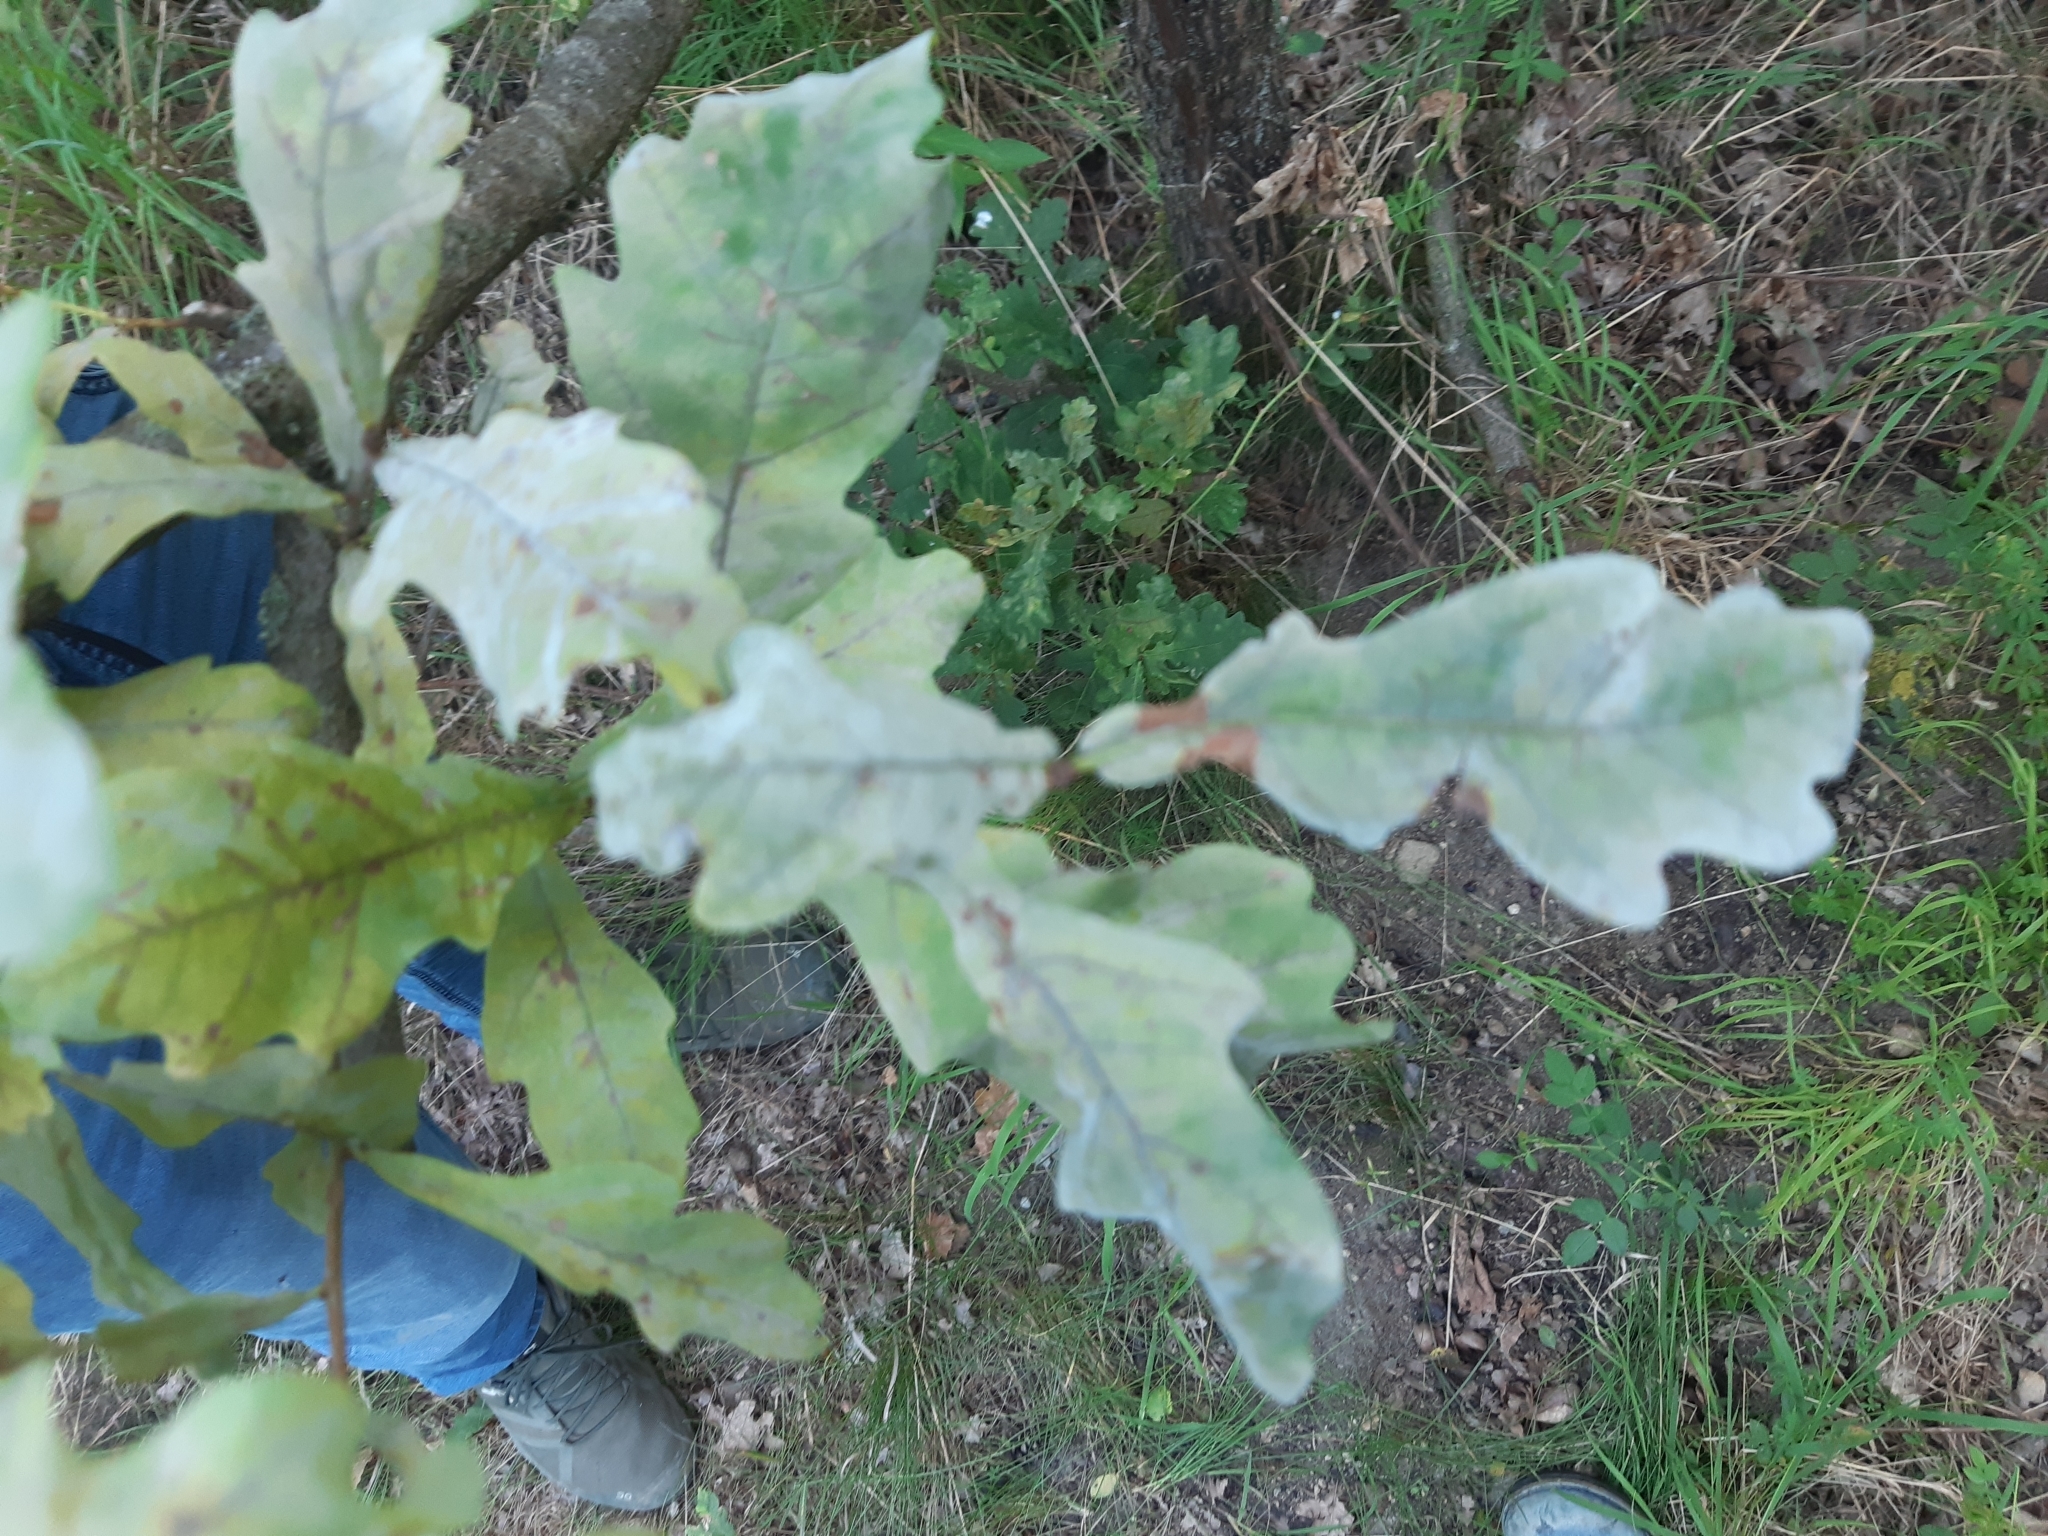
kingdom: Fungi
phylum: Ascomycota
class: Leotiomycetes
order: Helotiales
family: Erysiphaceae
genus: Erysiphe
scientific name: Erysiphe
